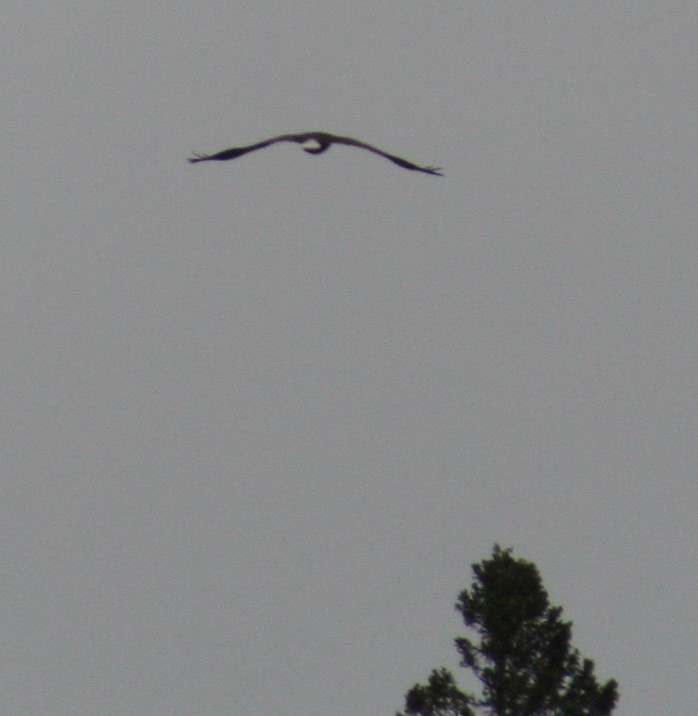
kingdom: Animalia
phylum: Chordata
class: Aves
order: Accipitriformes
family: Accipitridae
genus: Haliaeetus
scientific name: Haliaeetus leucocephalus
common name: Bald eagle
